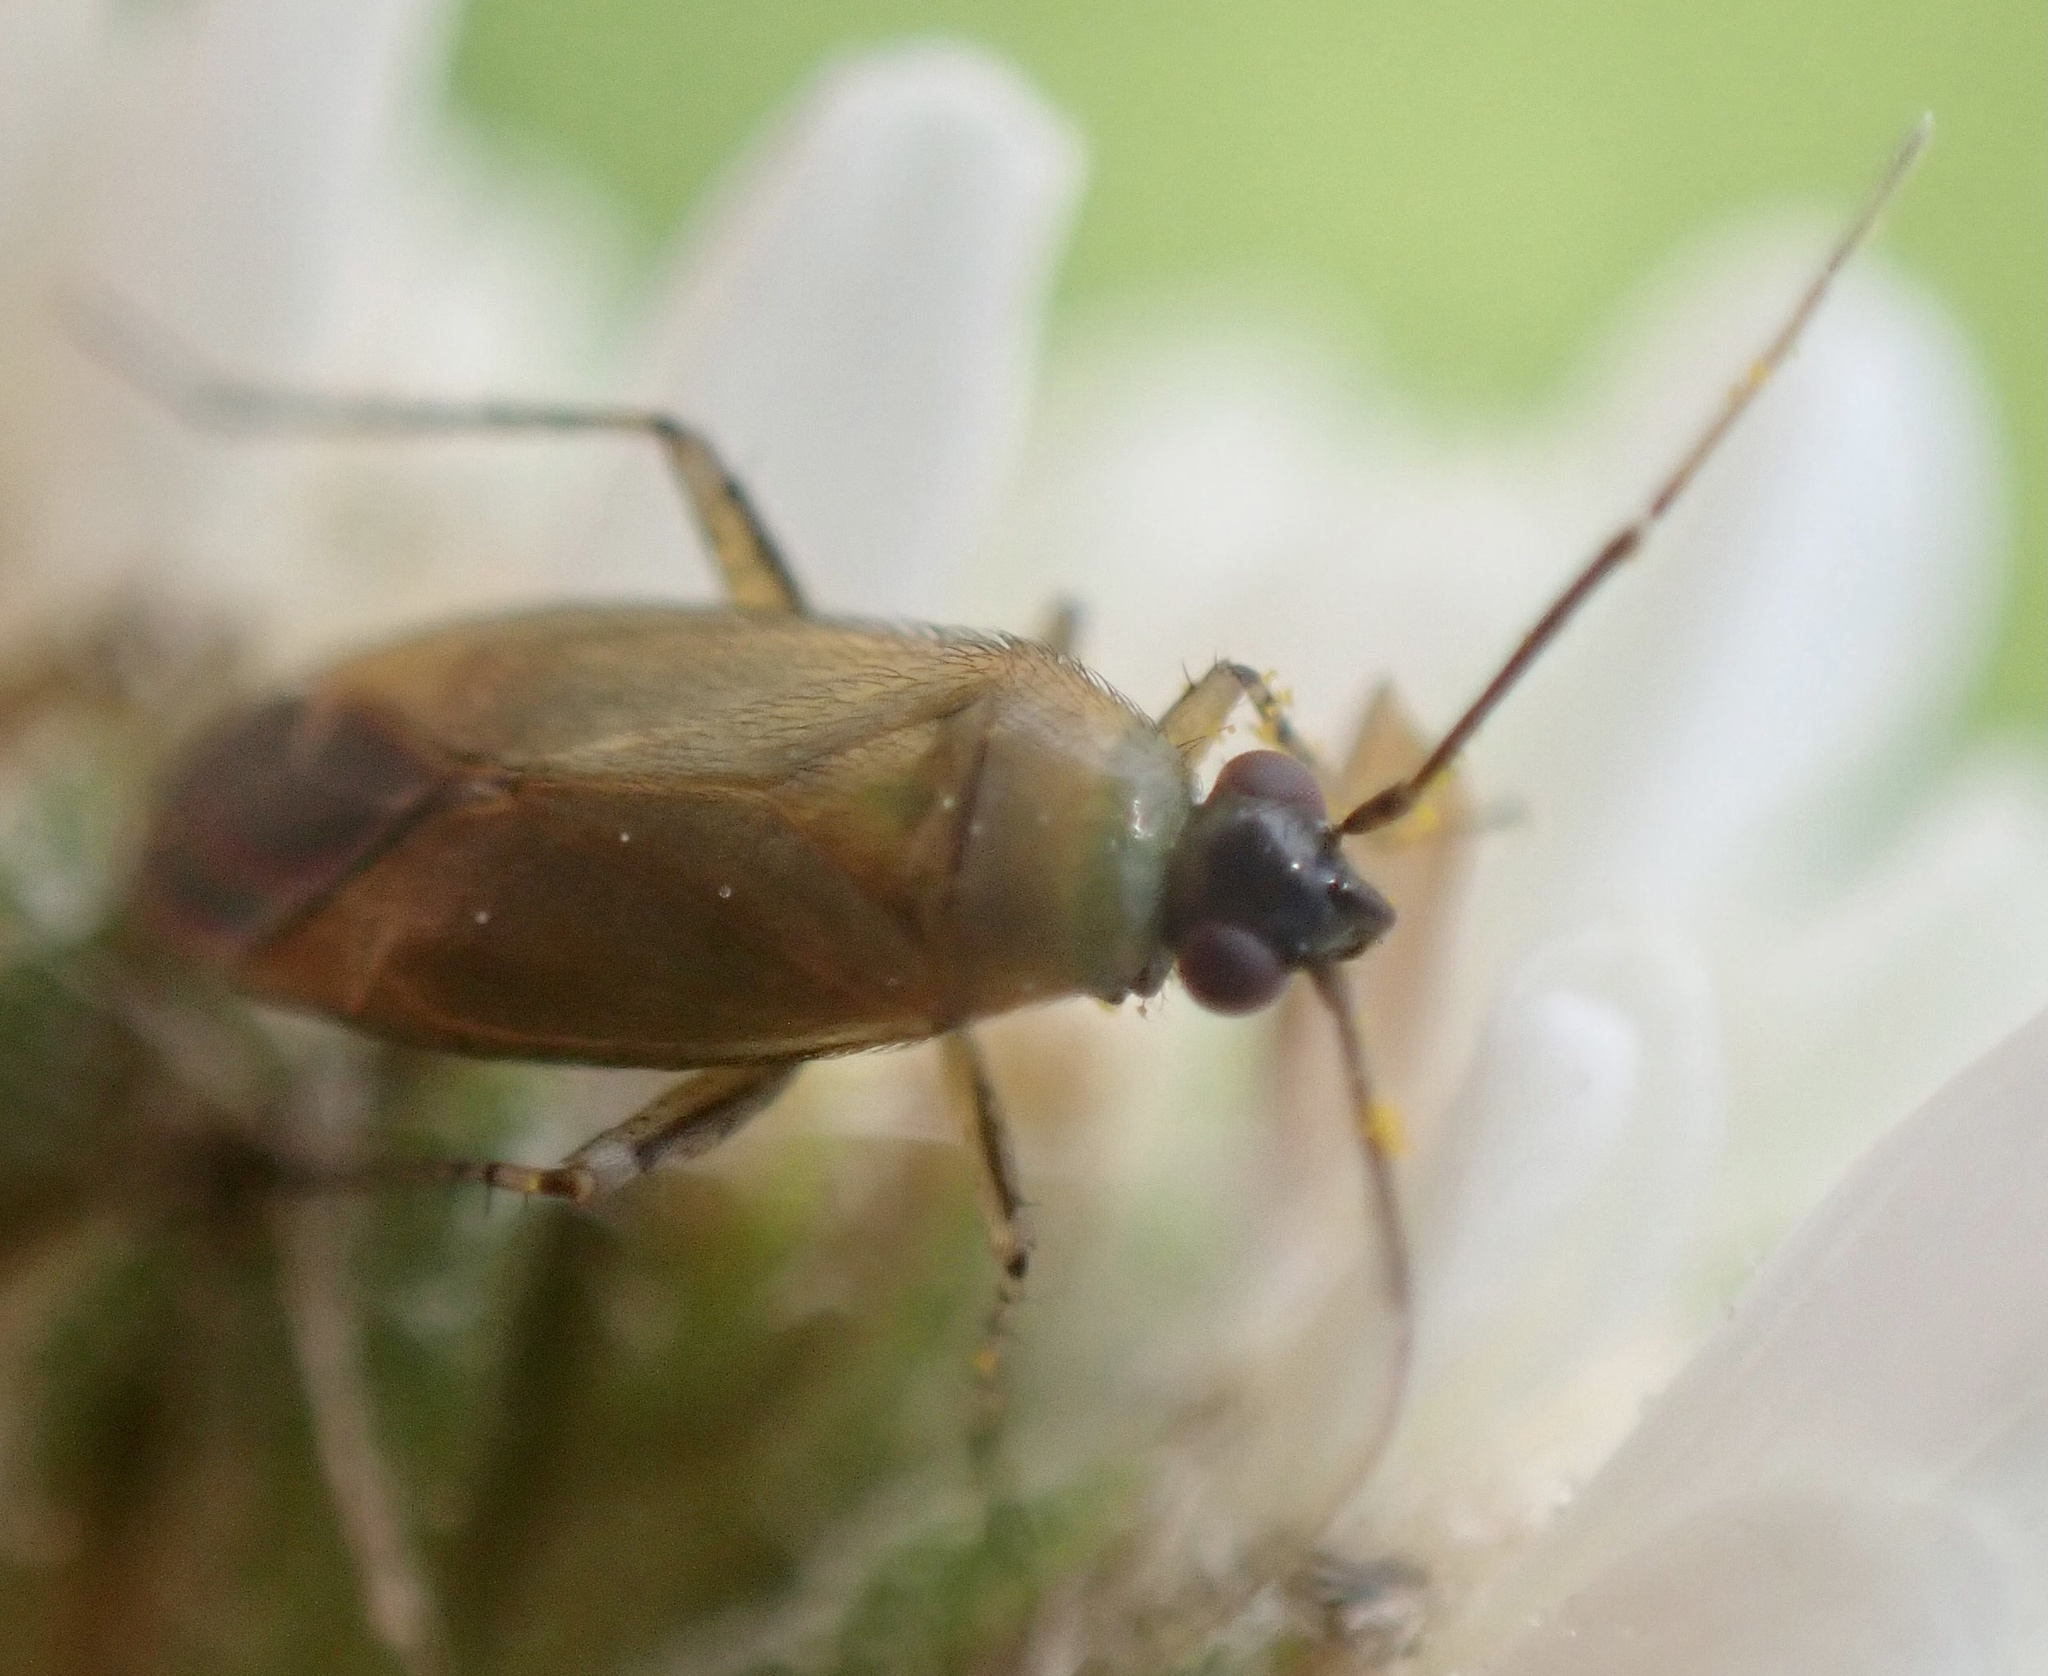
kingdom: Animalia
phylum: Arthropoda
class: Insecta
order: Hemiptera
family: Miridae
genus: Plagiognathus
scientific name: Plagiognathus arbustorum
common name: Plant bug
